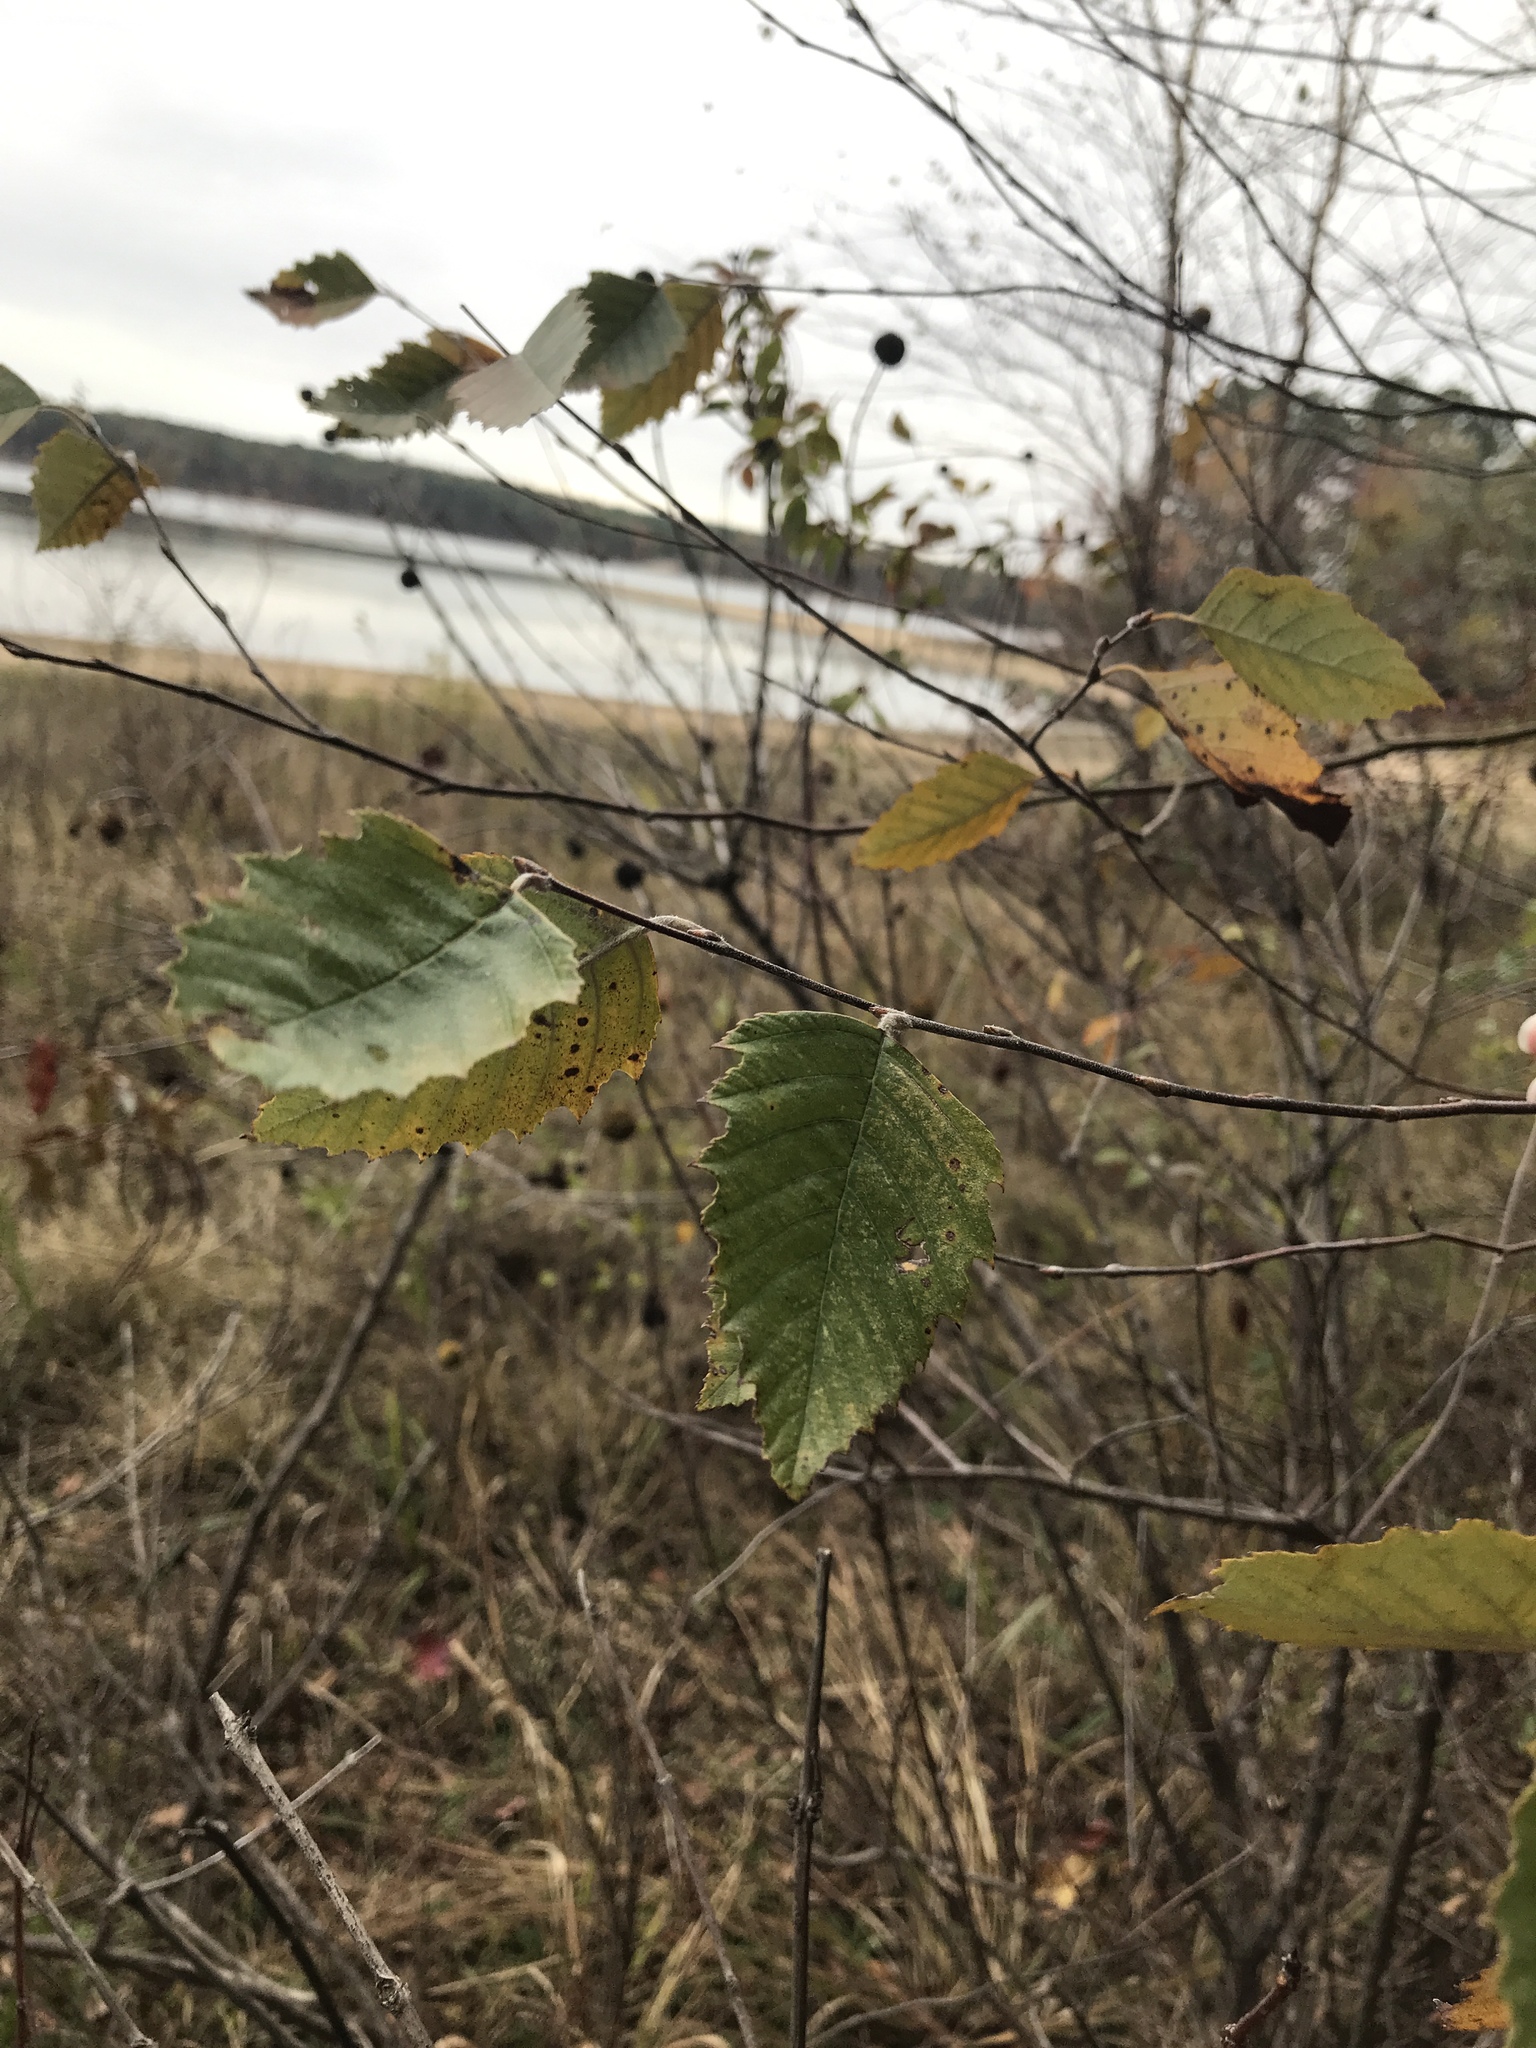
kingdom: Plantae
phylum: Tracheophyta
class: Magnoliopsida
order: Fagales
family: Betulaceae
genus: Betula
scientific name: Betula nigra
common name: Black birch
